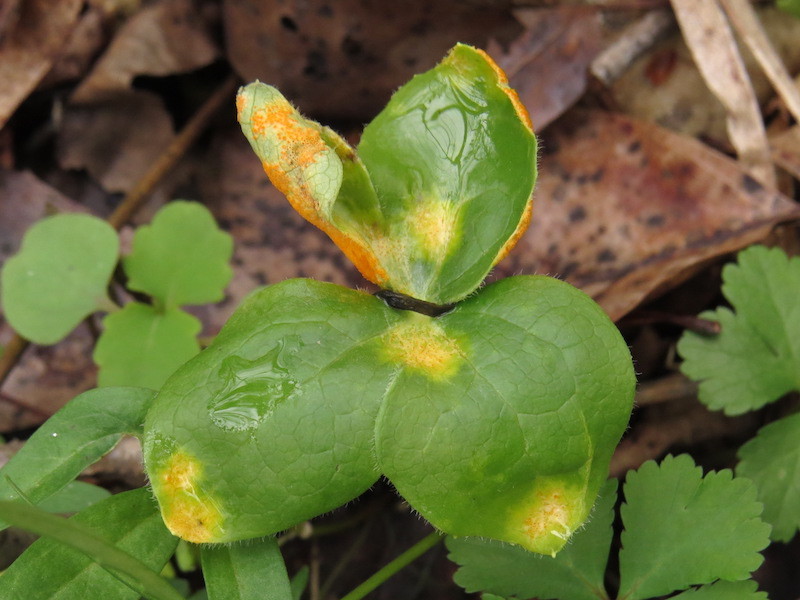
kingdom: Fungi
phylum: Basidiomycota
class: Pucciniomycetes
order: Pucciniales
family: Pucciniaceae
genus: Puccinia
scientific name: Puccinia podophylli
